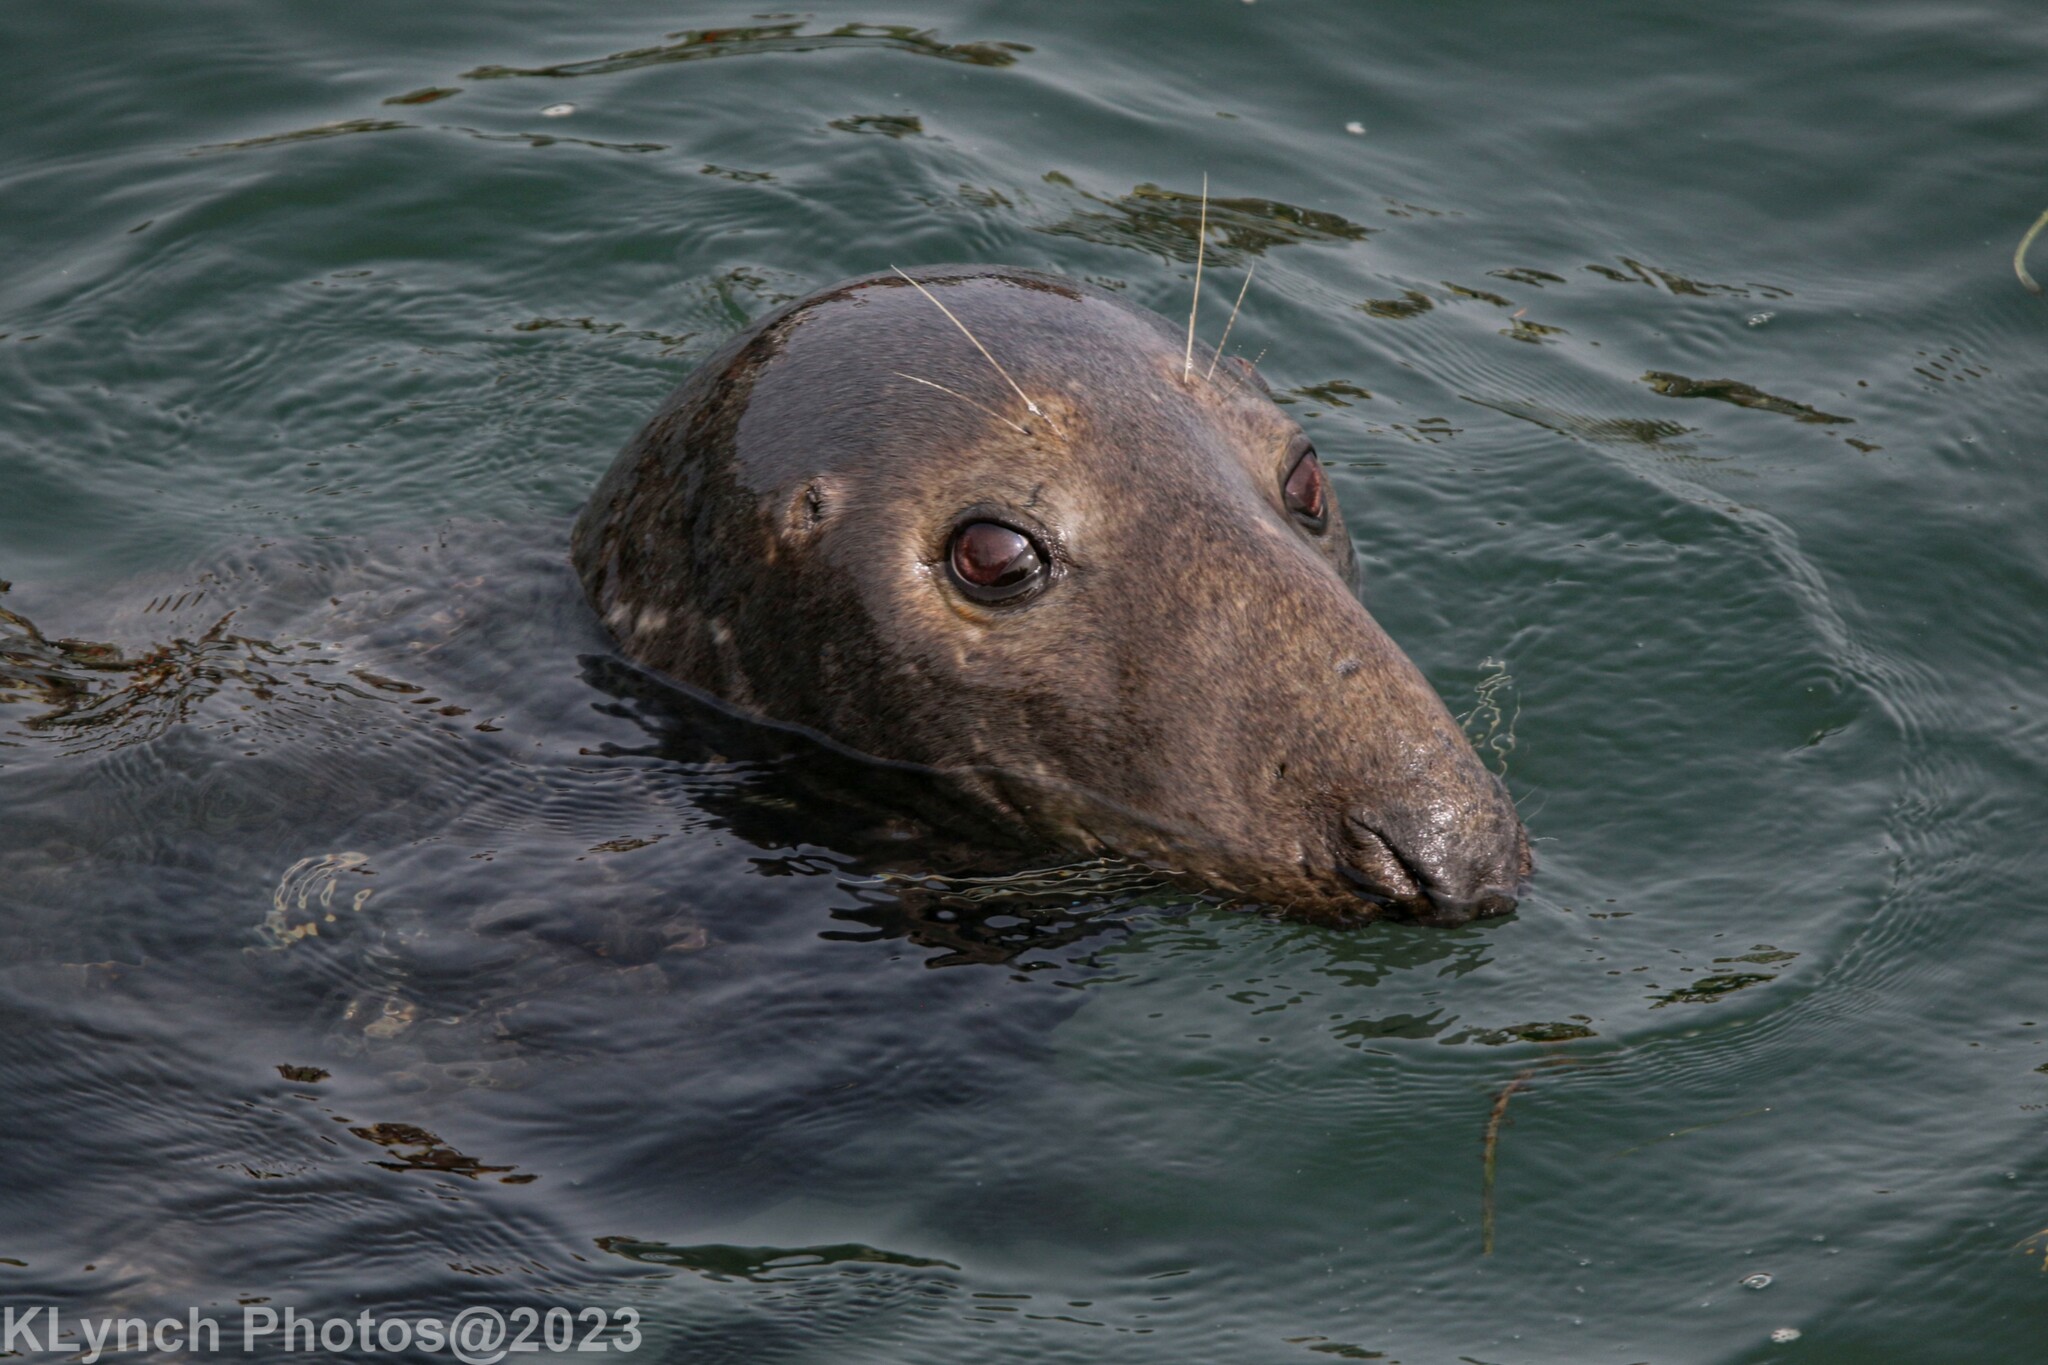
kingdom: Animalia
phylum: Chordata
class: Mammalia
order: Carnivora
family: Phocidae
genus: Halichoerus
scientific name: Halichoerus grypus
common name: Grey seal
